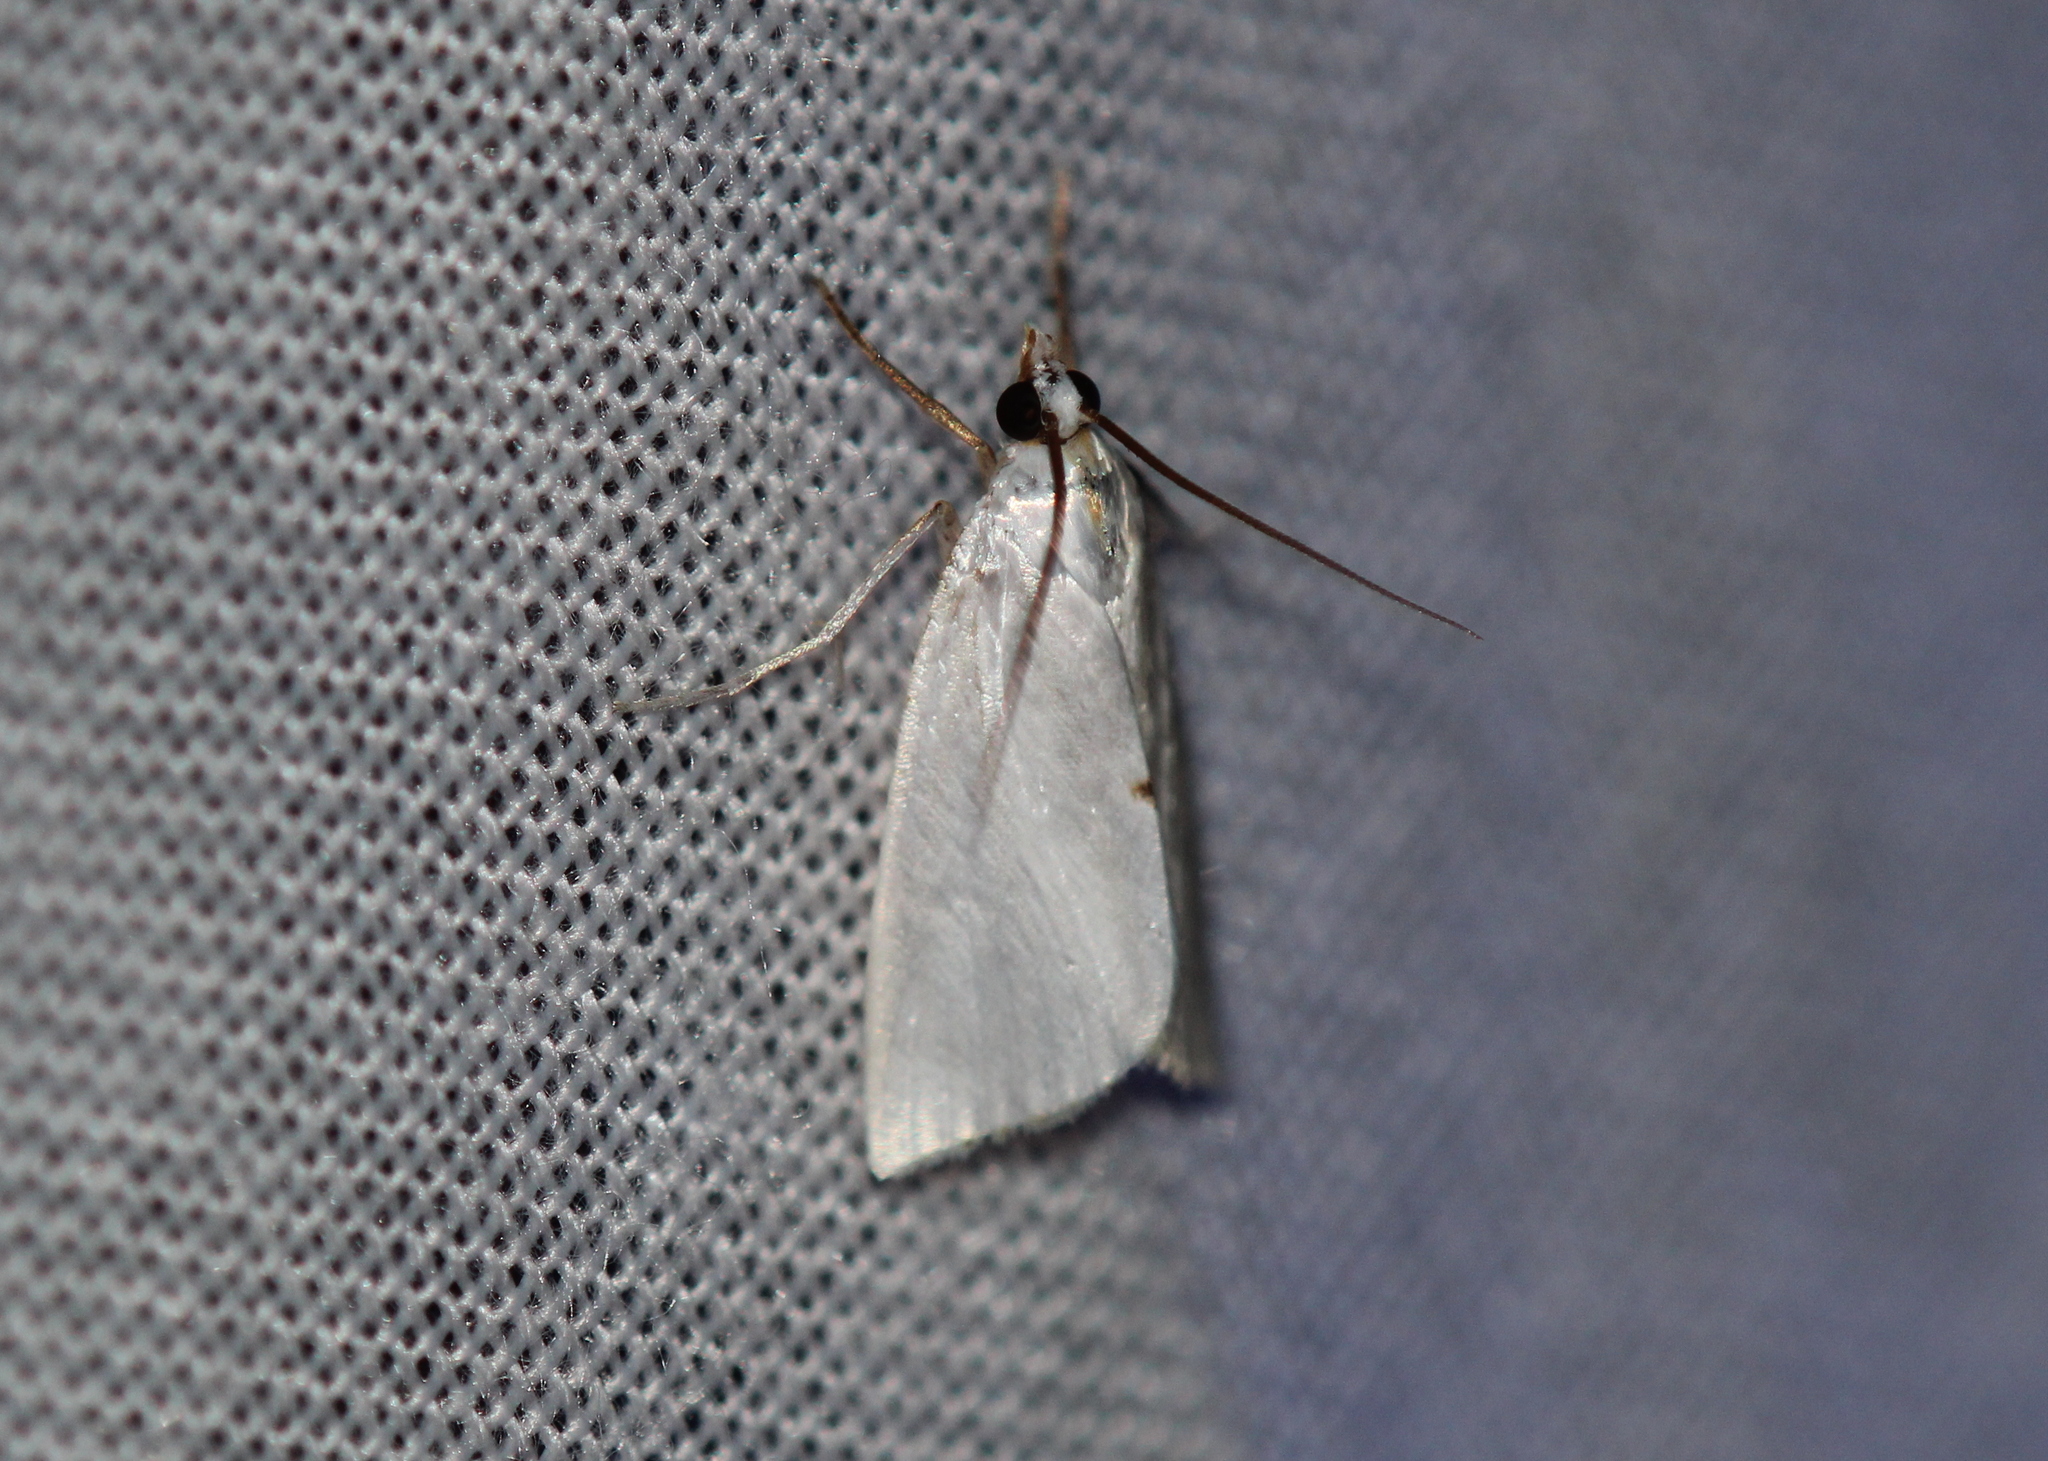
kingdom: Animalia
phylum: Arthropoda
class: Insecta
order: Lepidoptera
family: Crambidae
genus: Argyria
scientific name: Argyria nivalis
